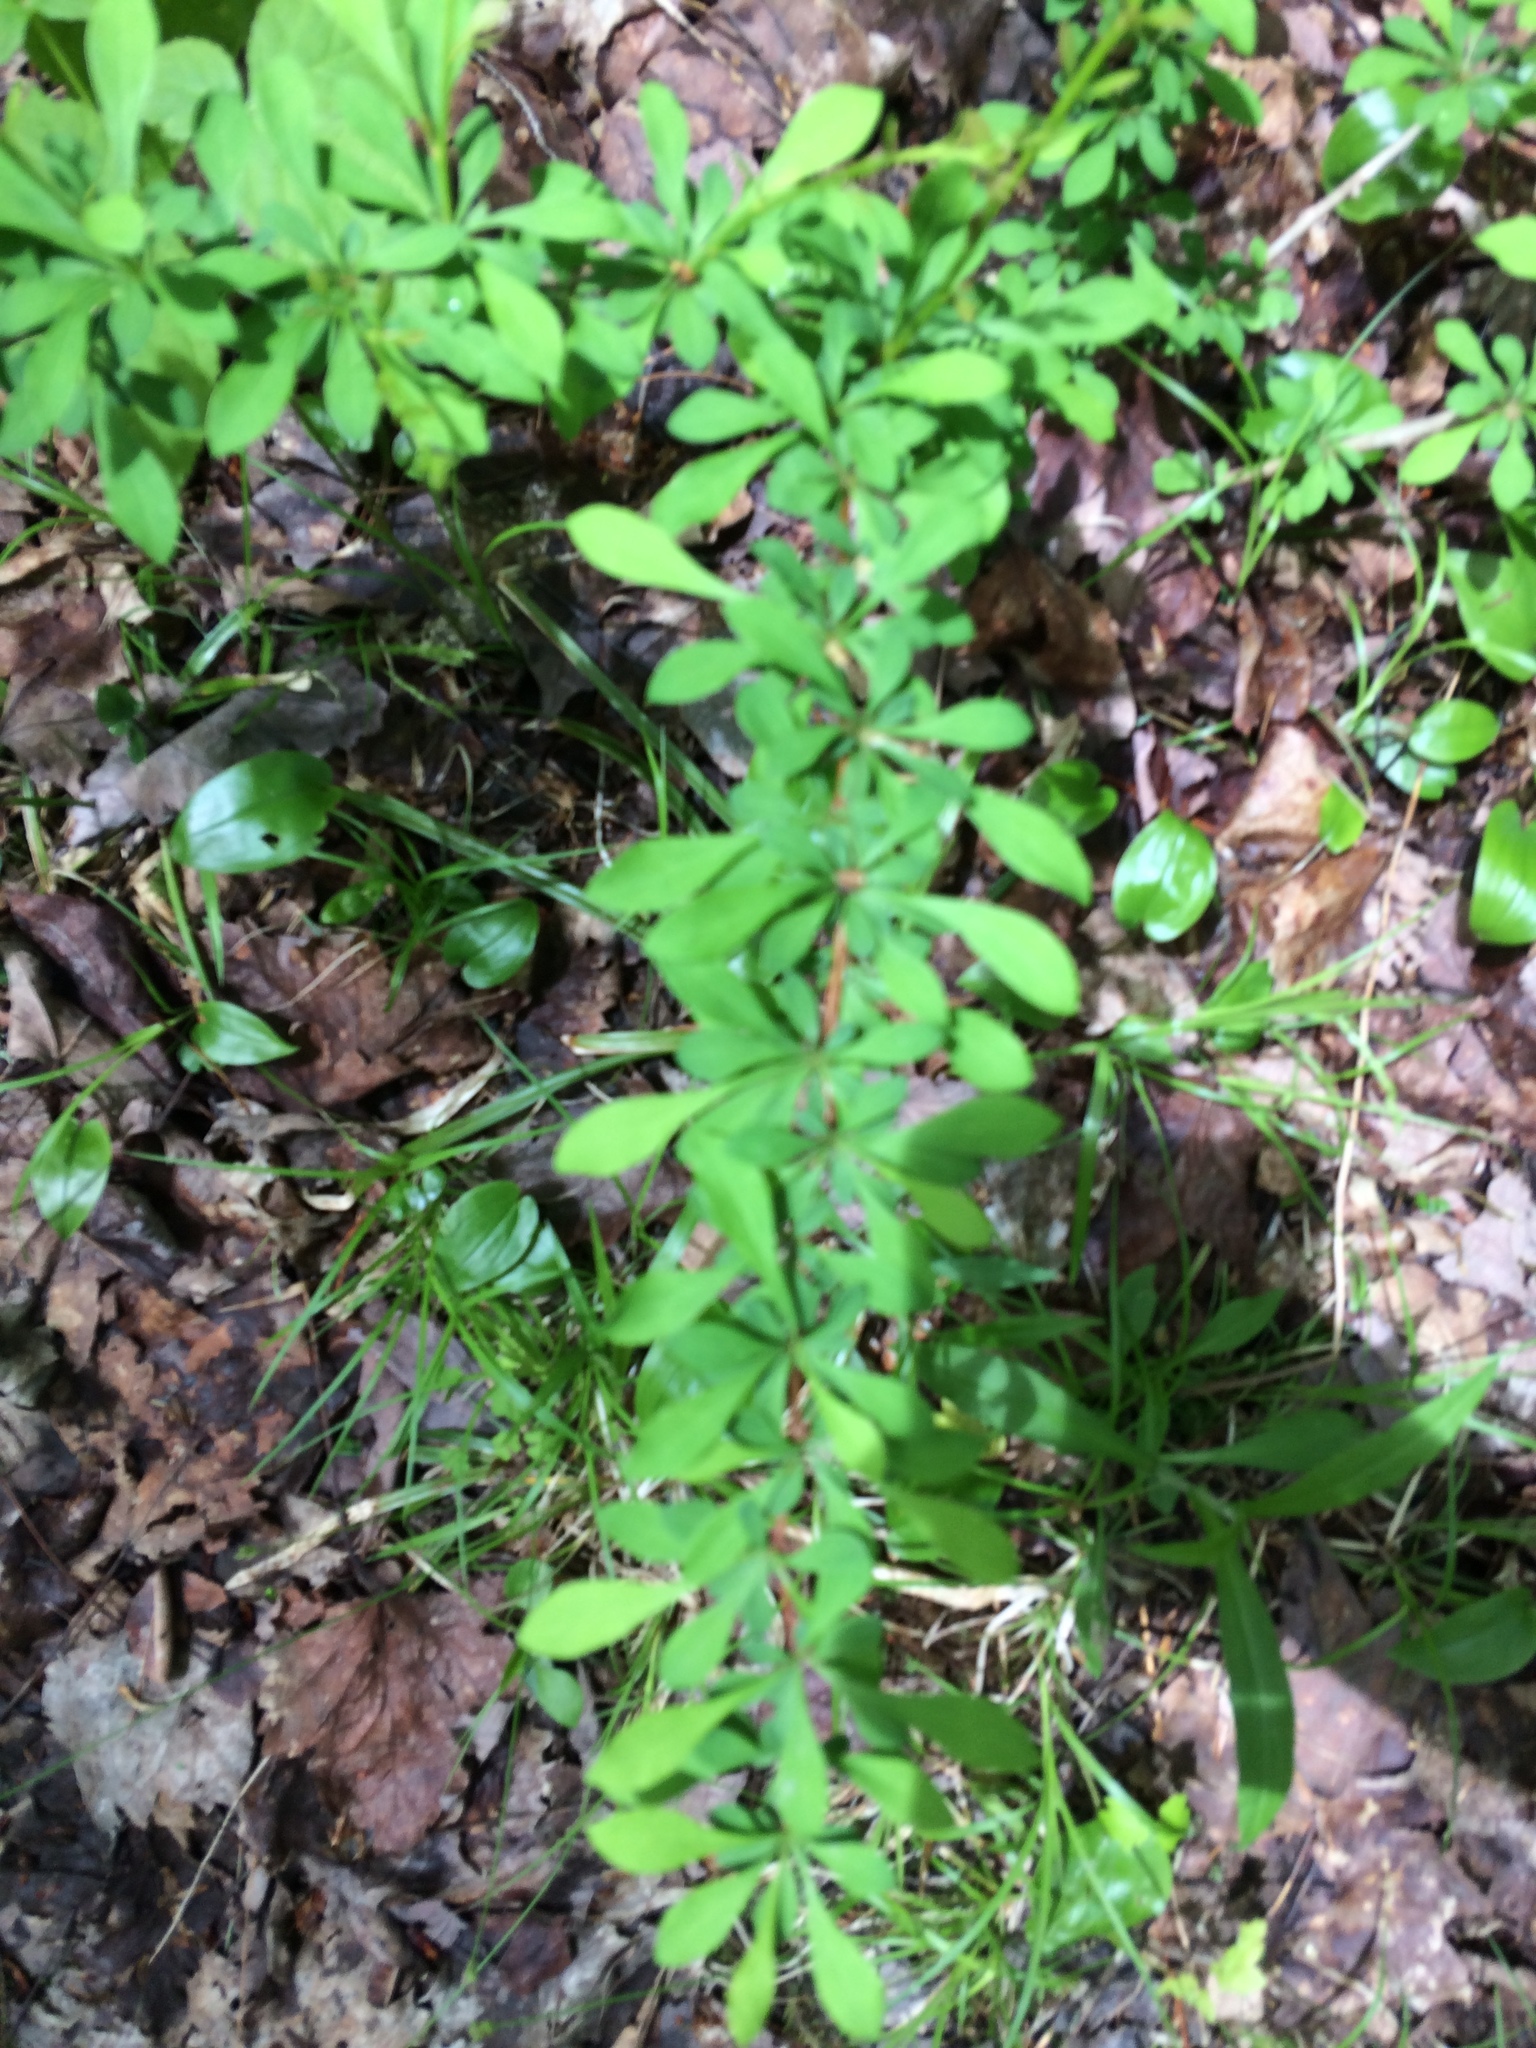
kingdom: Plantae
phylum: Tracheophyta
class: Magnoliopsida
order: Ranunculales
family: Berberidaceae
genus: Berberis
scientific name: Berberis thunbergii
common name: Japanese barberry
